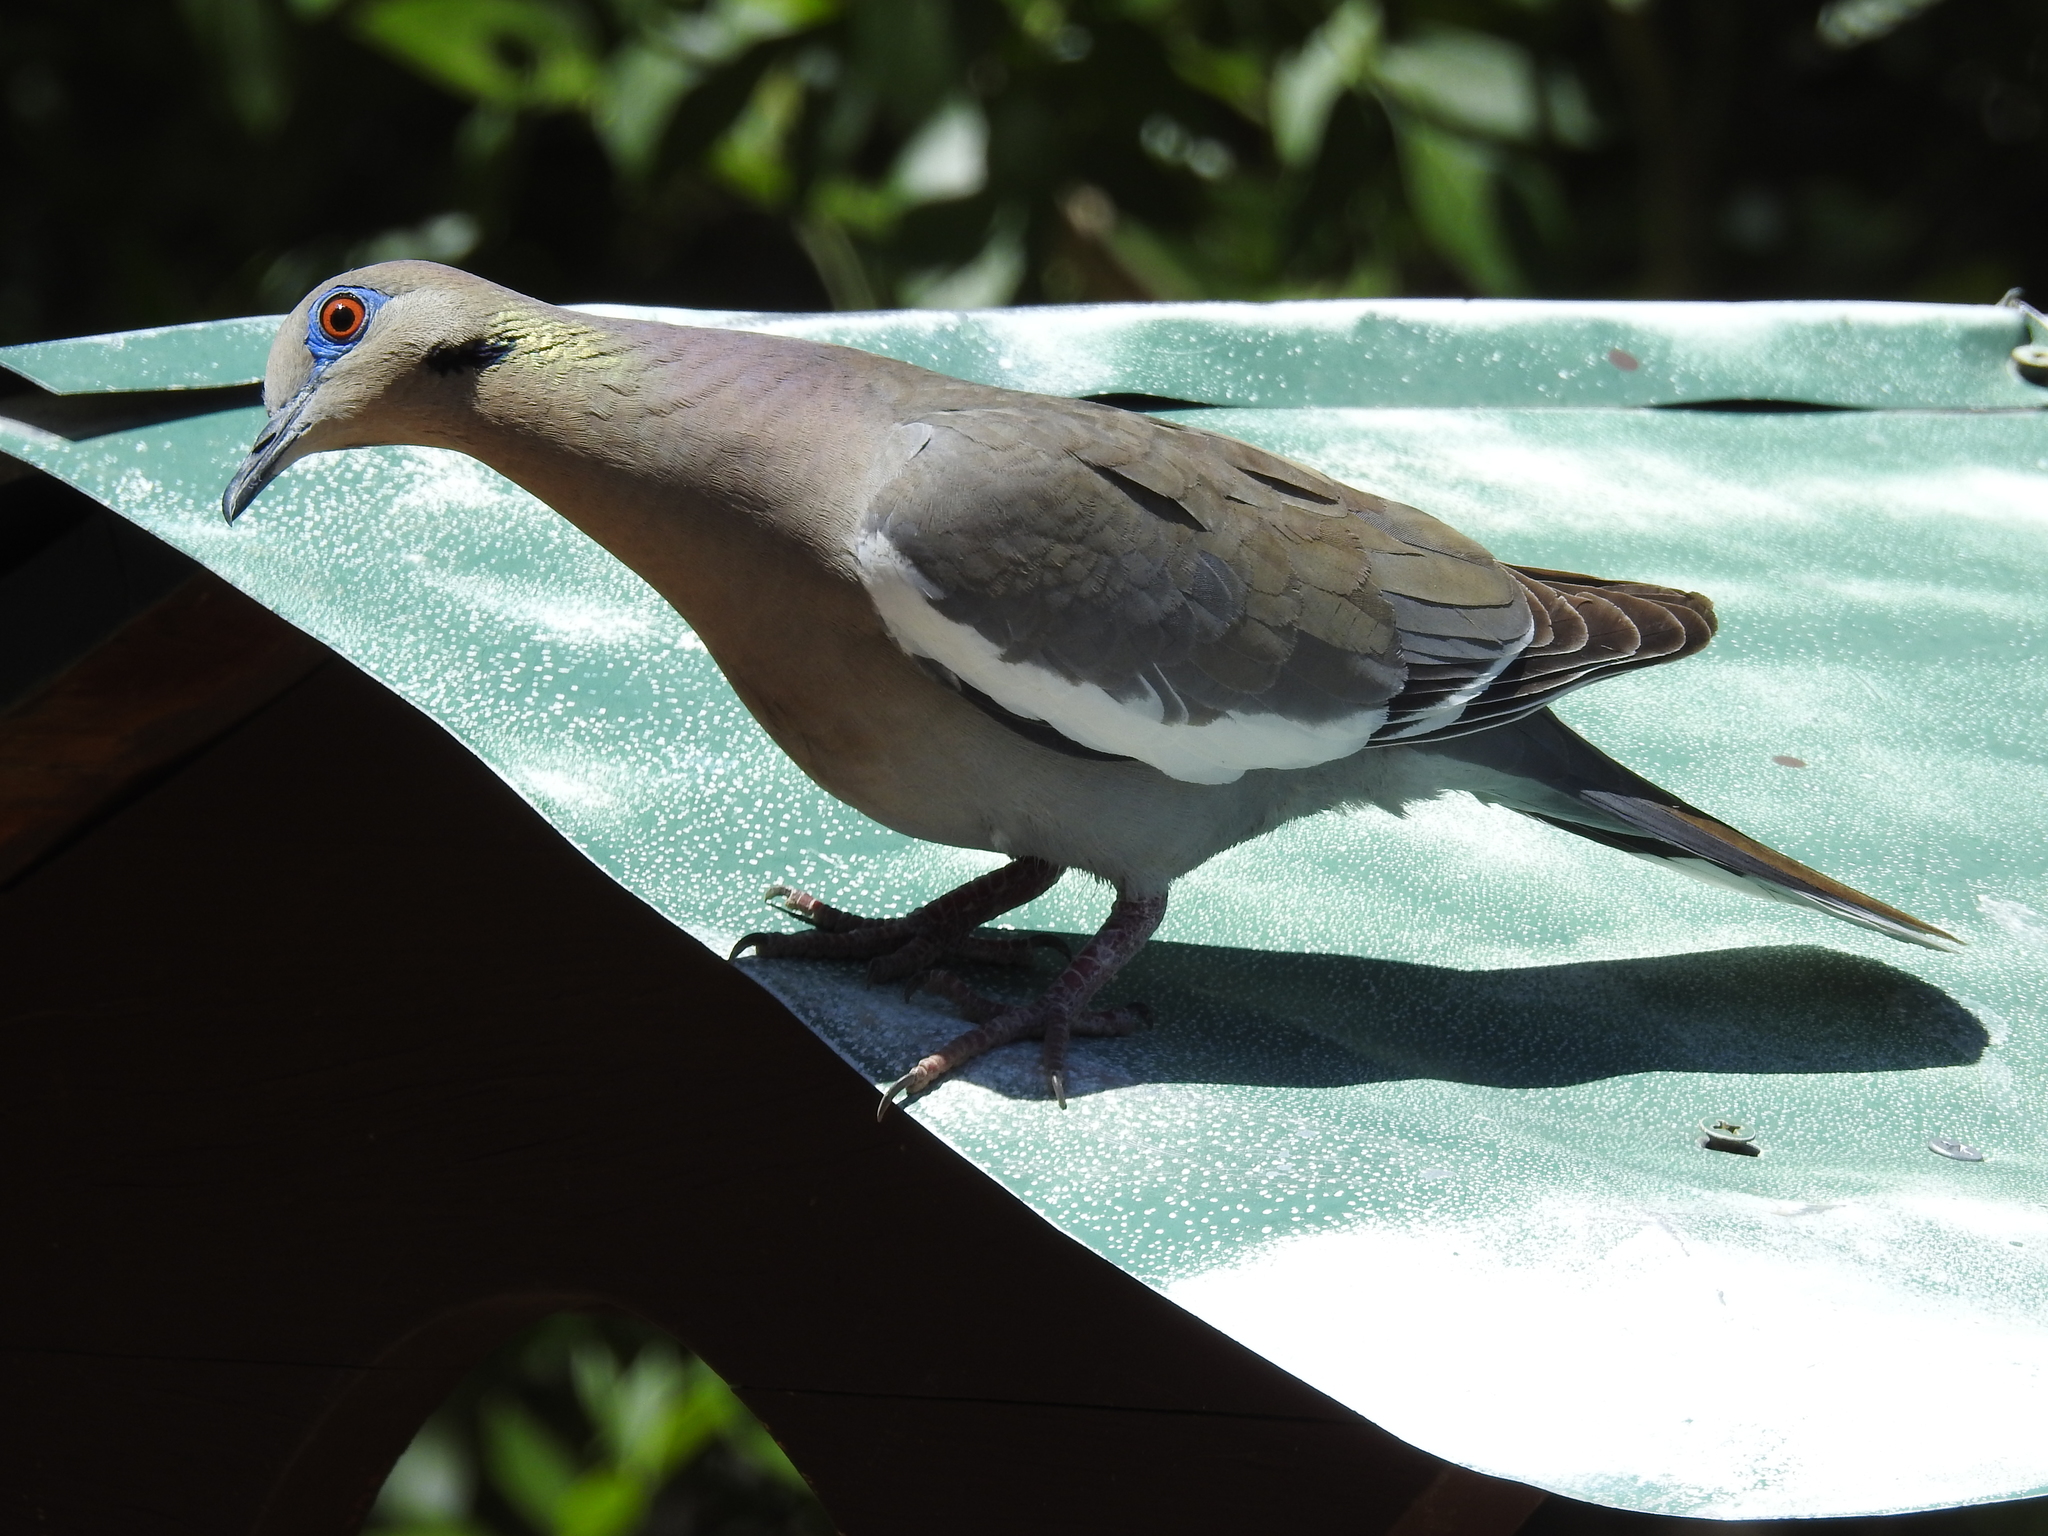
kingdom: Animalia
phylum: Chordata
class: Aves
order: Columbiformes
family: Columbidae
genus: Zenaida
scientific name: Zenaida asiatica
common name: White-winged dove
